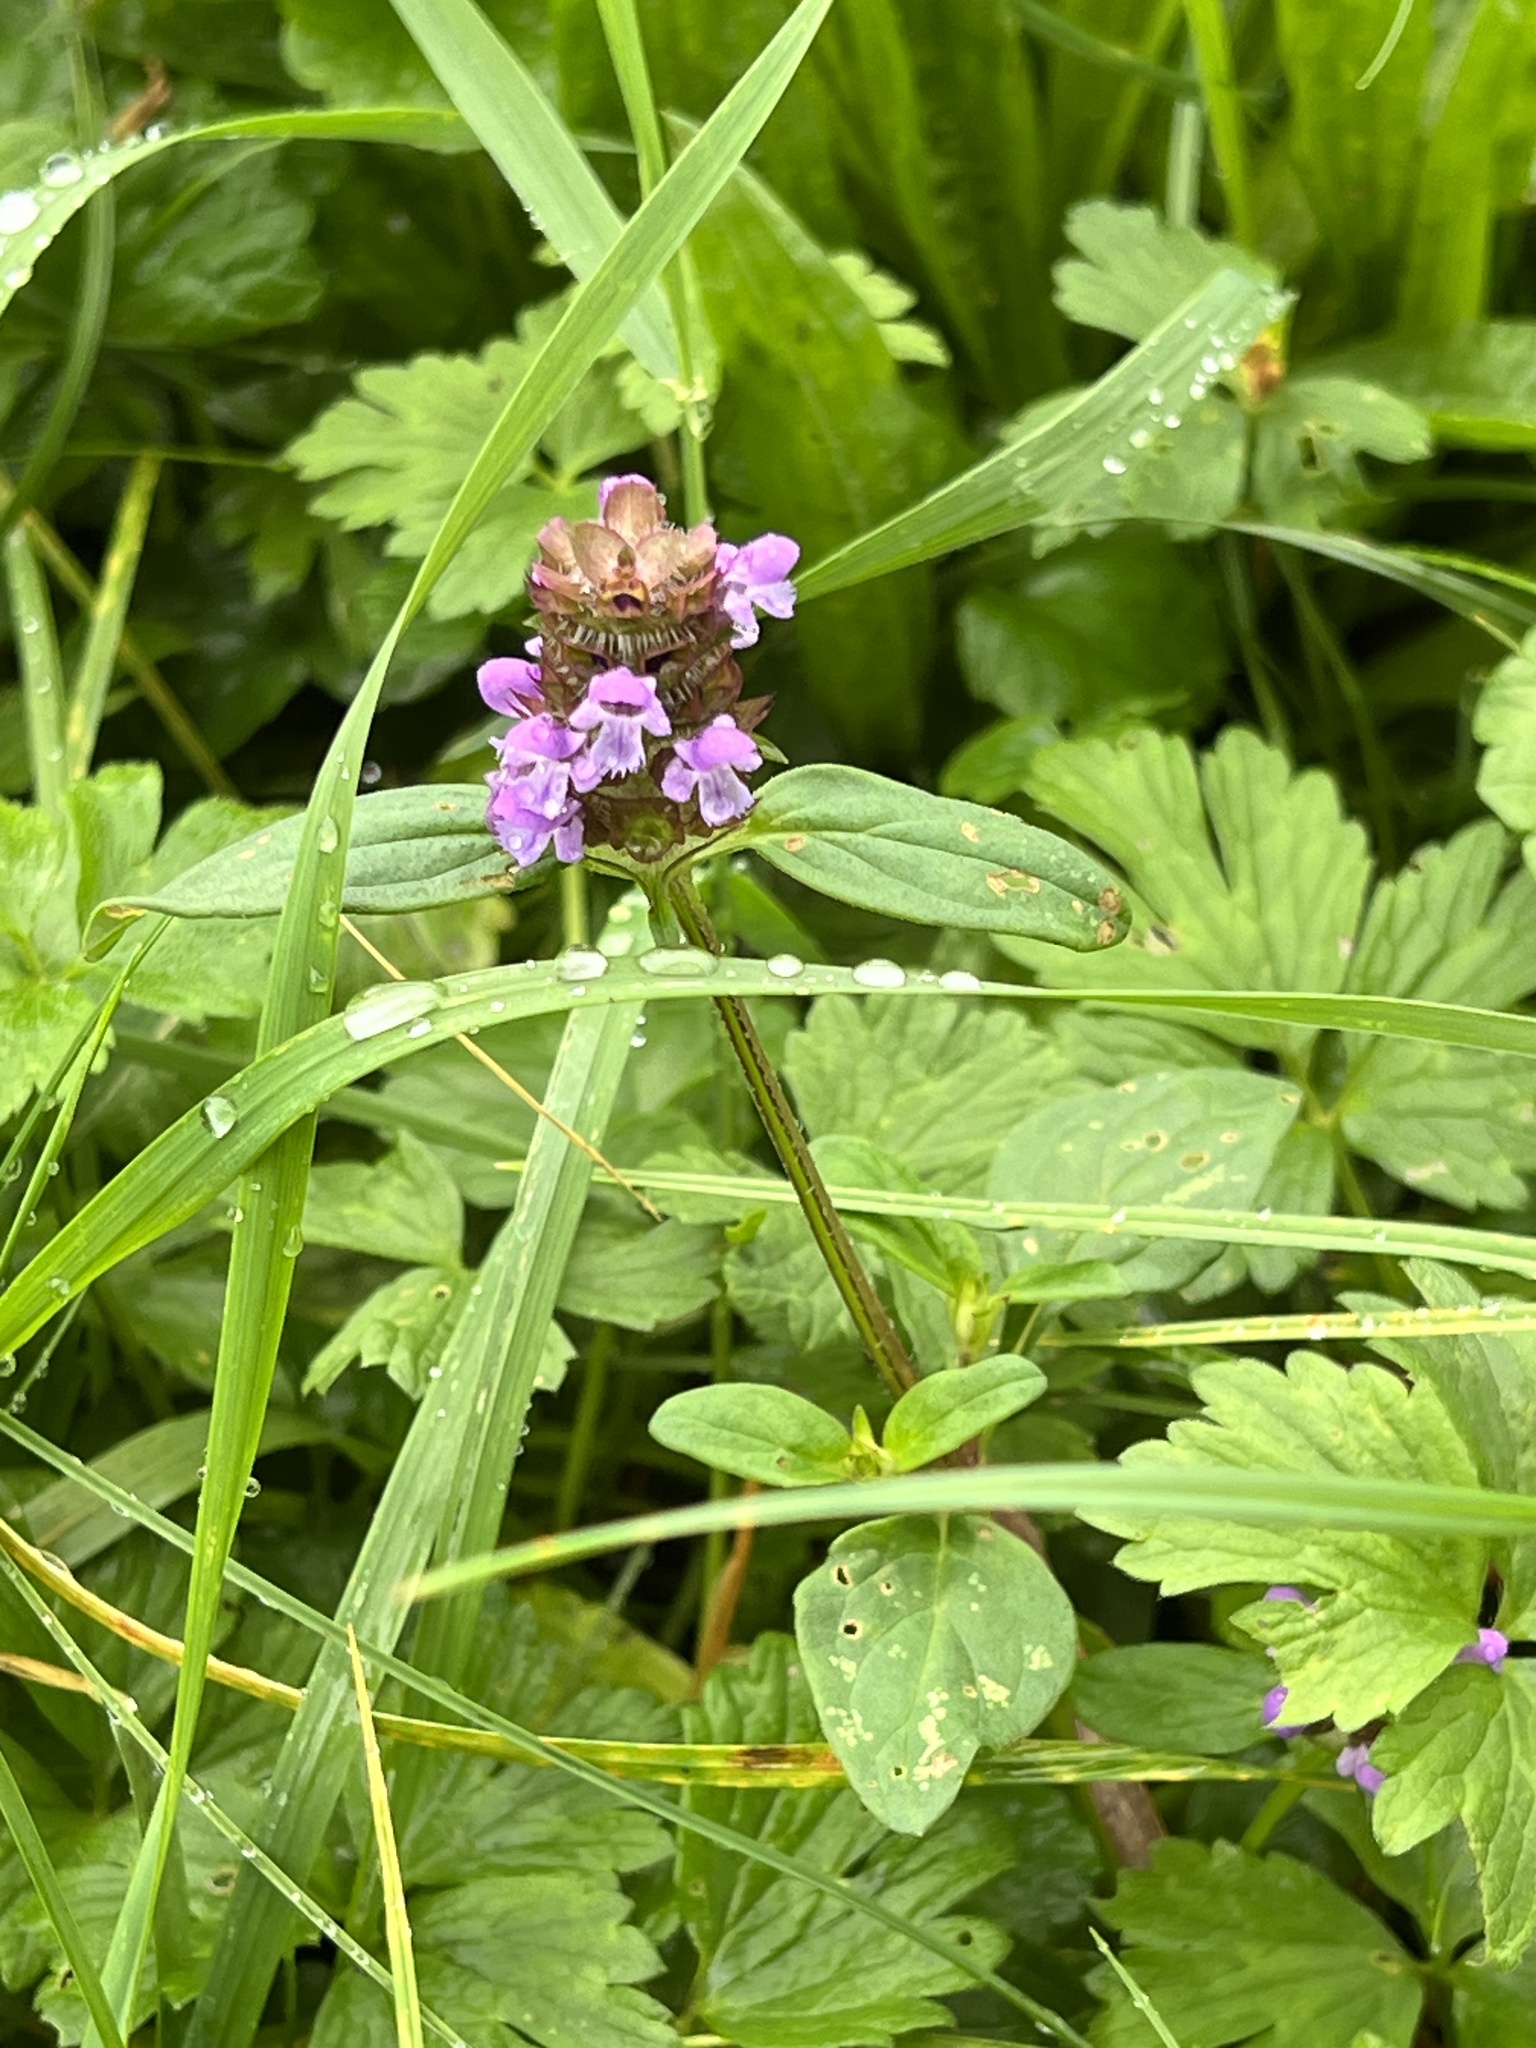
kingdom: Plantae
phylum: Tracheophyta
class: Magnoliopsida
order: Lamiales
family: Lamiaceae
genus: Prunella
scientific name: Prunella vulgaris
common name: Heal-all
